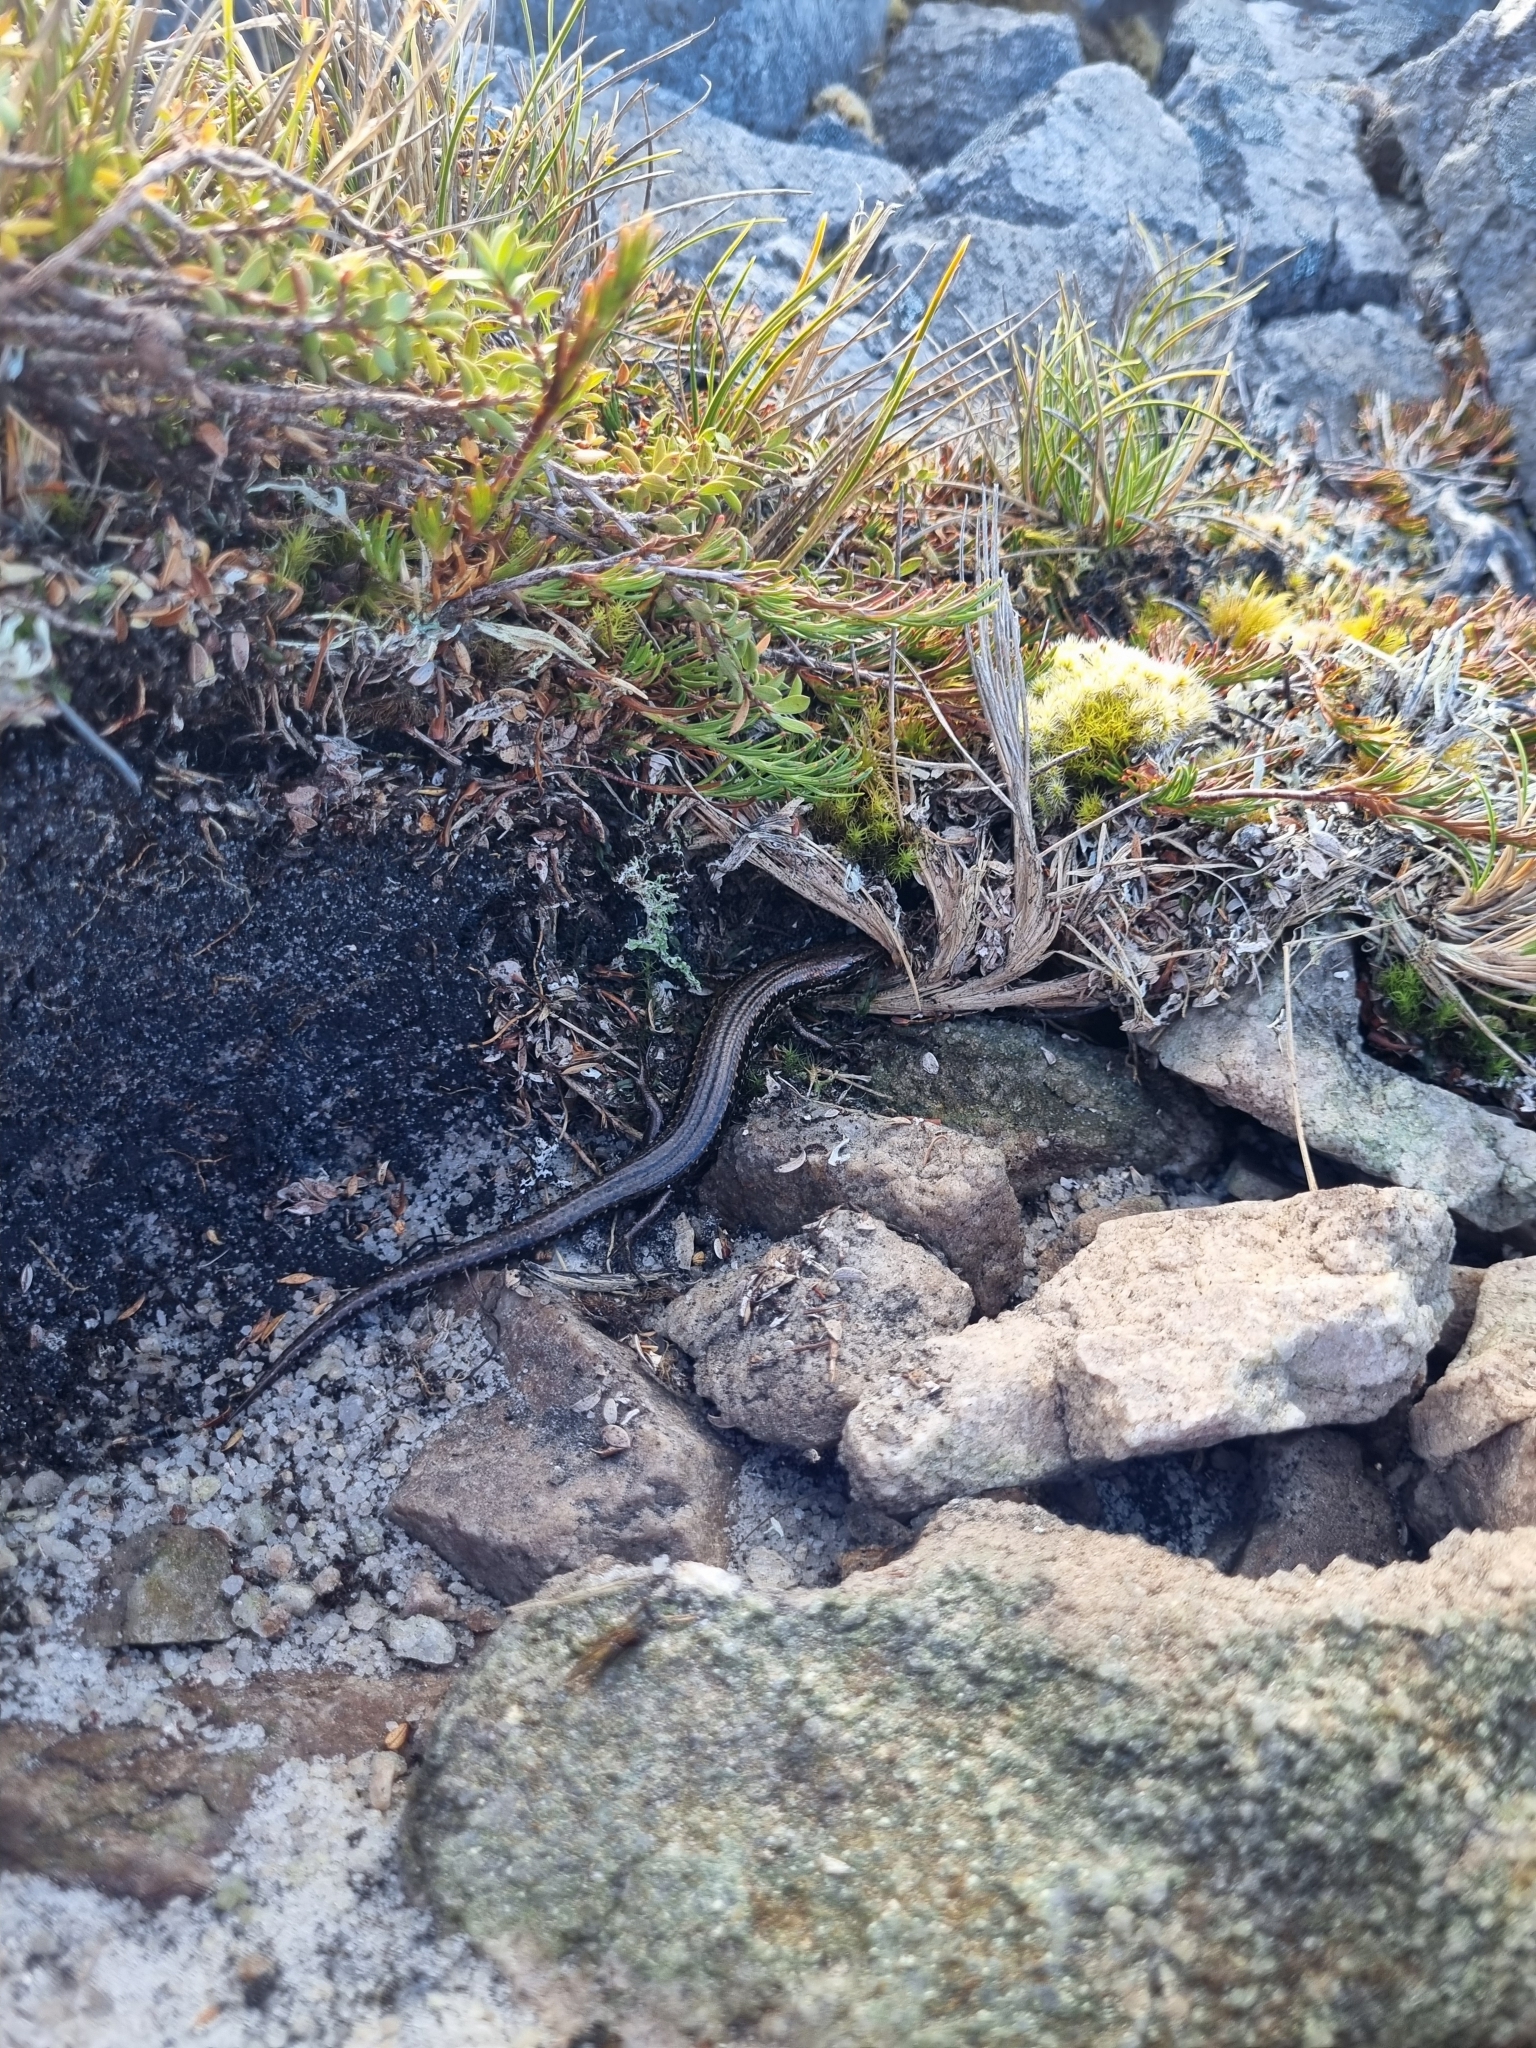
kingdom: Animalia
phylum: Chordata
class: Squamata
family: Scincidae
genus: Oligosoma
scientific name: Oligosoma newmani
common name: Newman’s speckled skink
